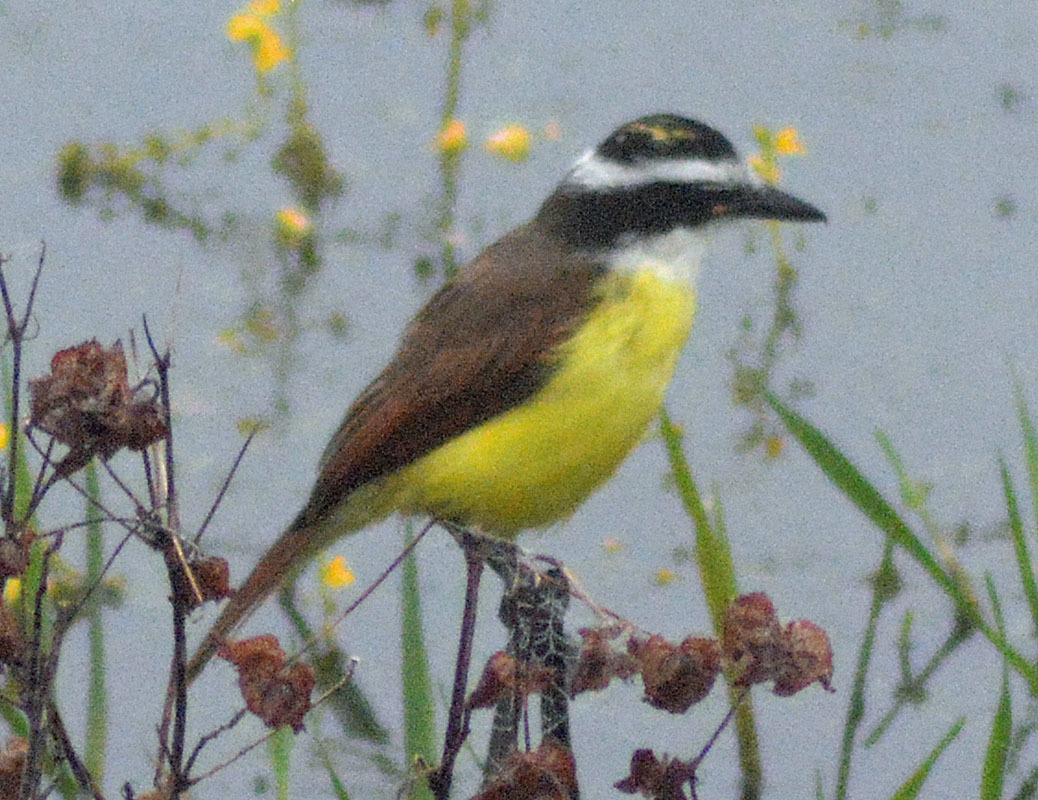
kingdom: Animalia
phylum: Chordata
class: Aves
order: Passeriformes
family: Tyrannidae
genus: Pitangus
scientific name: Pitangus sulphuratus
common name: Great kiskadee
